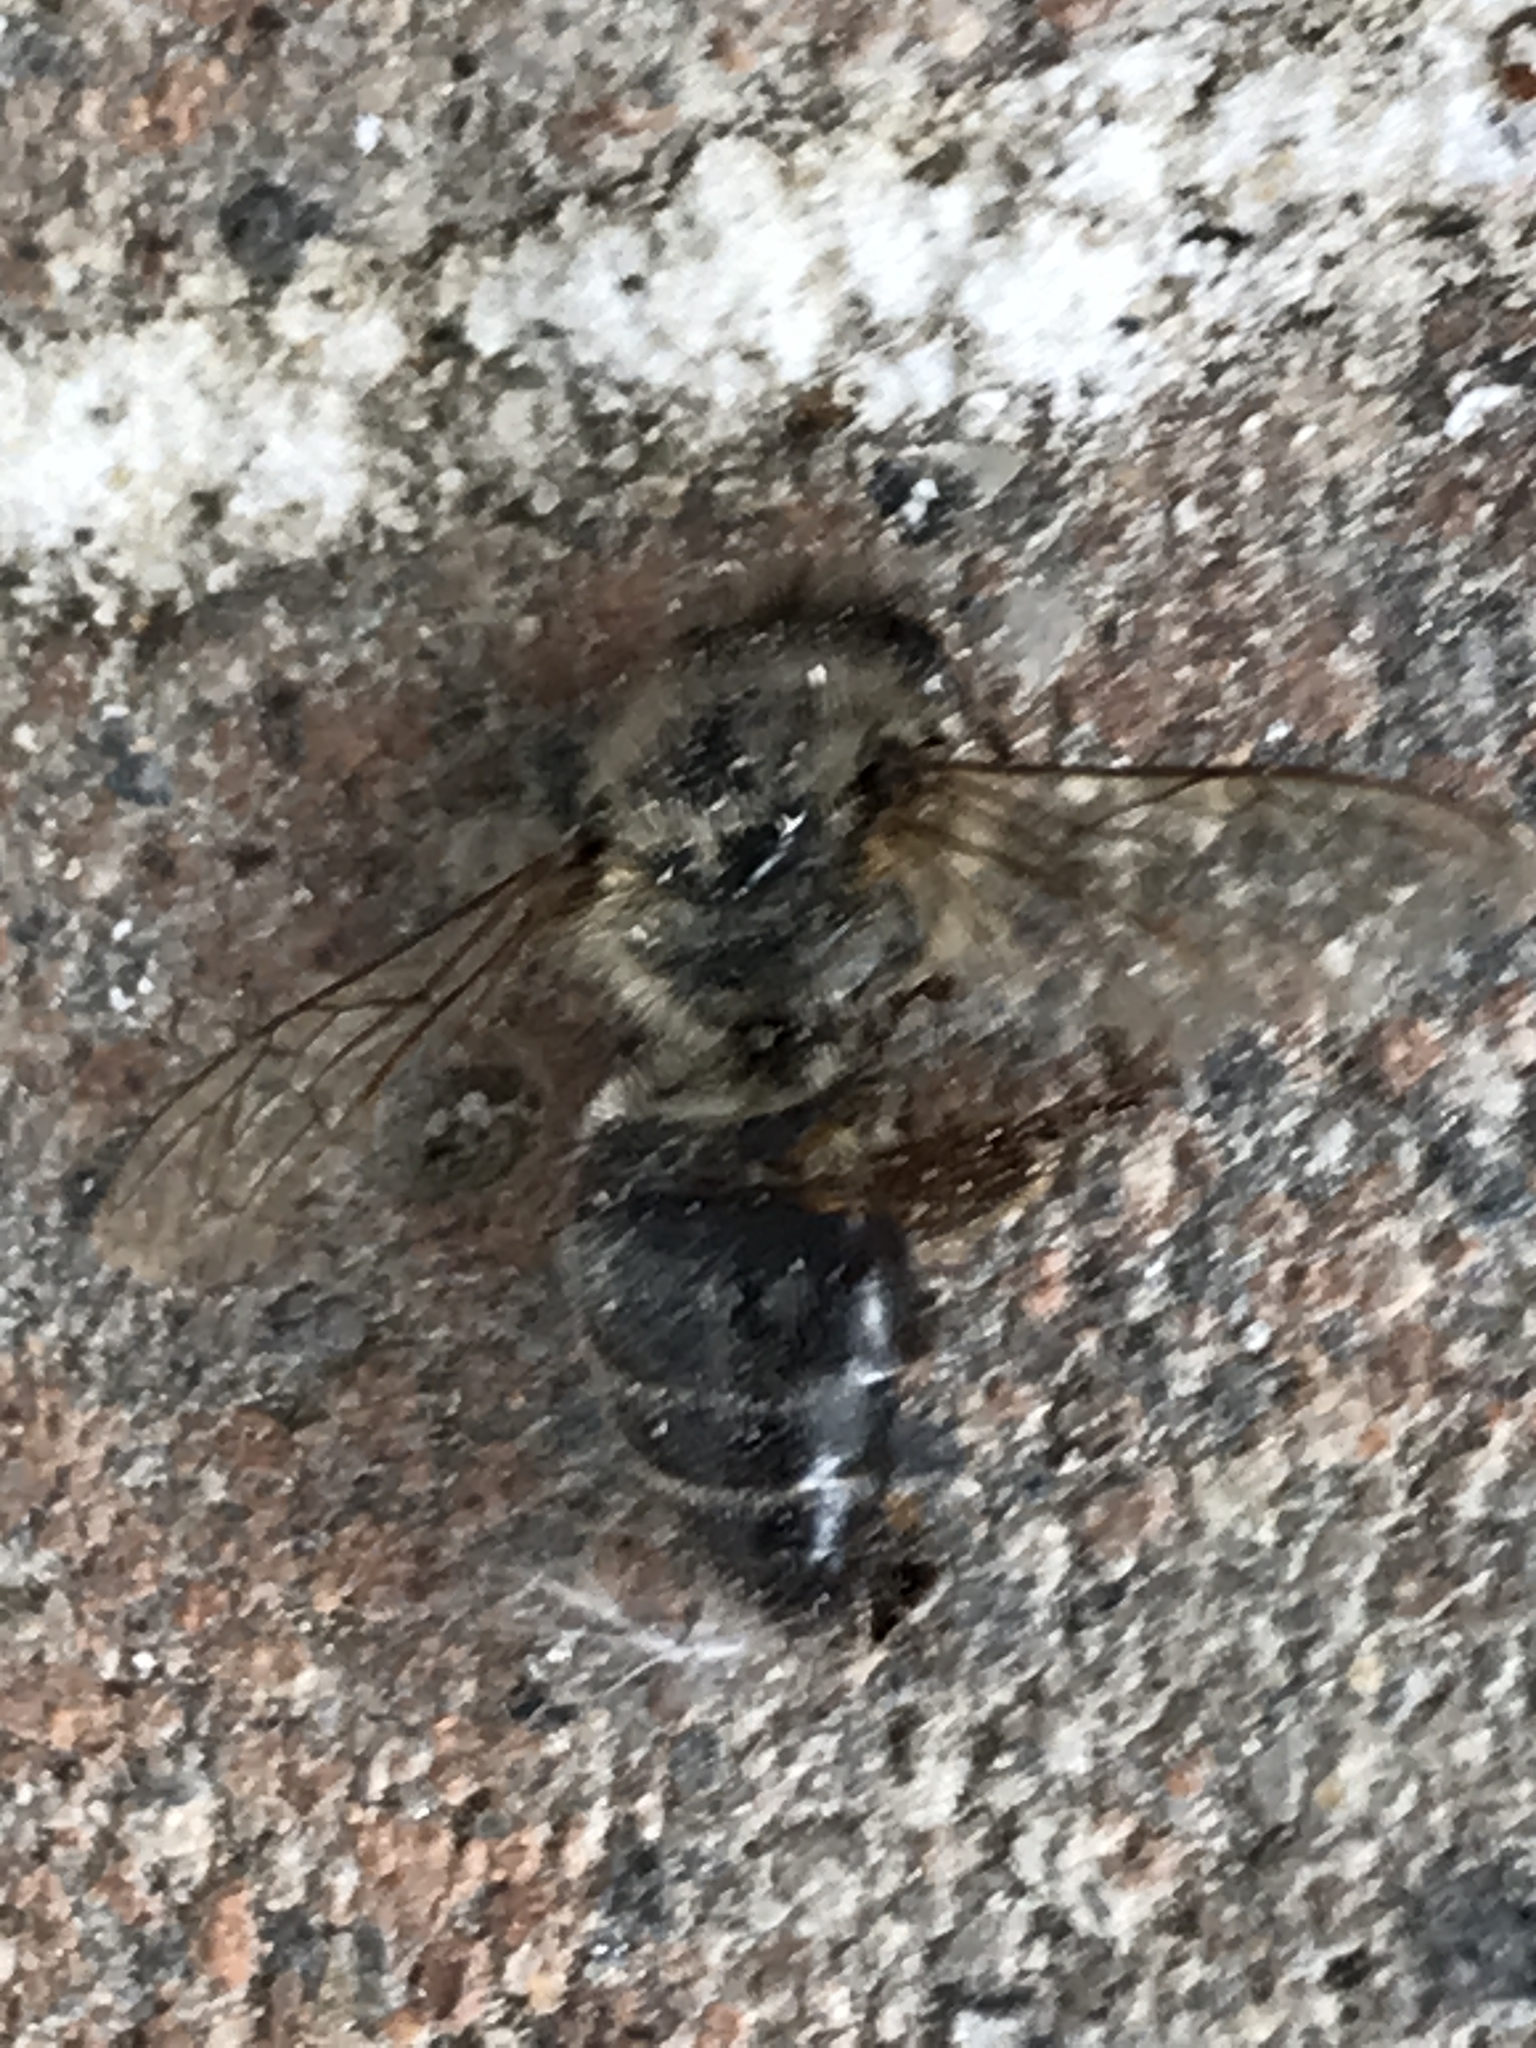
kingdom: Animalia
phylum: Arthropoda
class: Insecta
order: Hymenoptera
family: Apidae
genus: Apis
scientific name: Apis mellifera
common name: Honey bee
